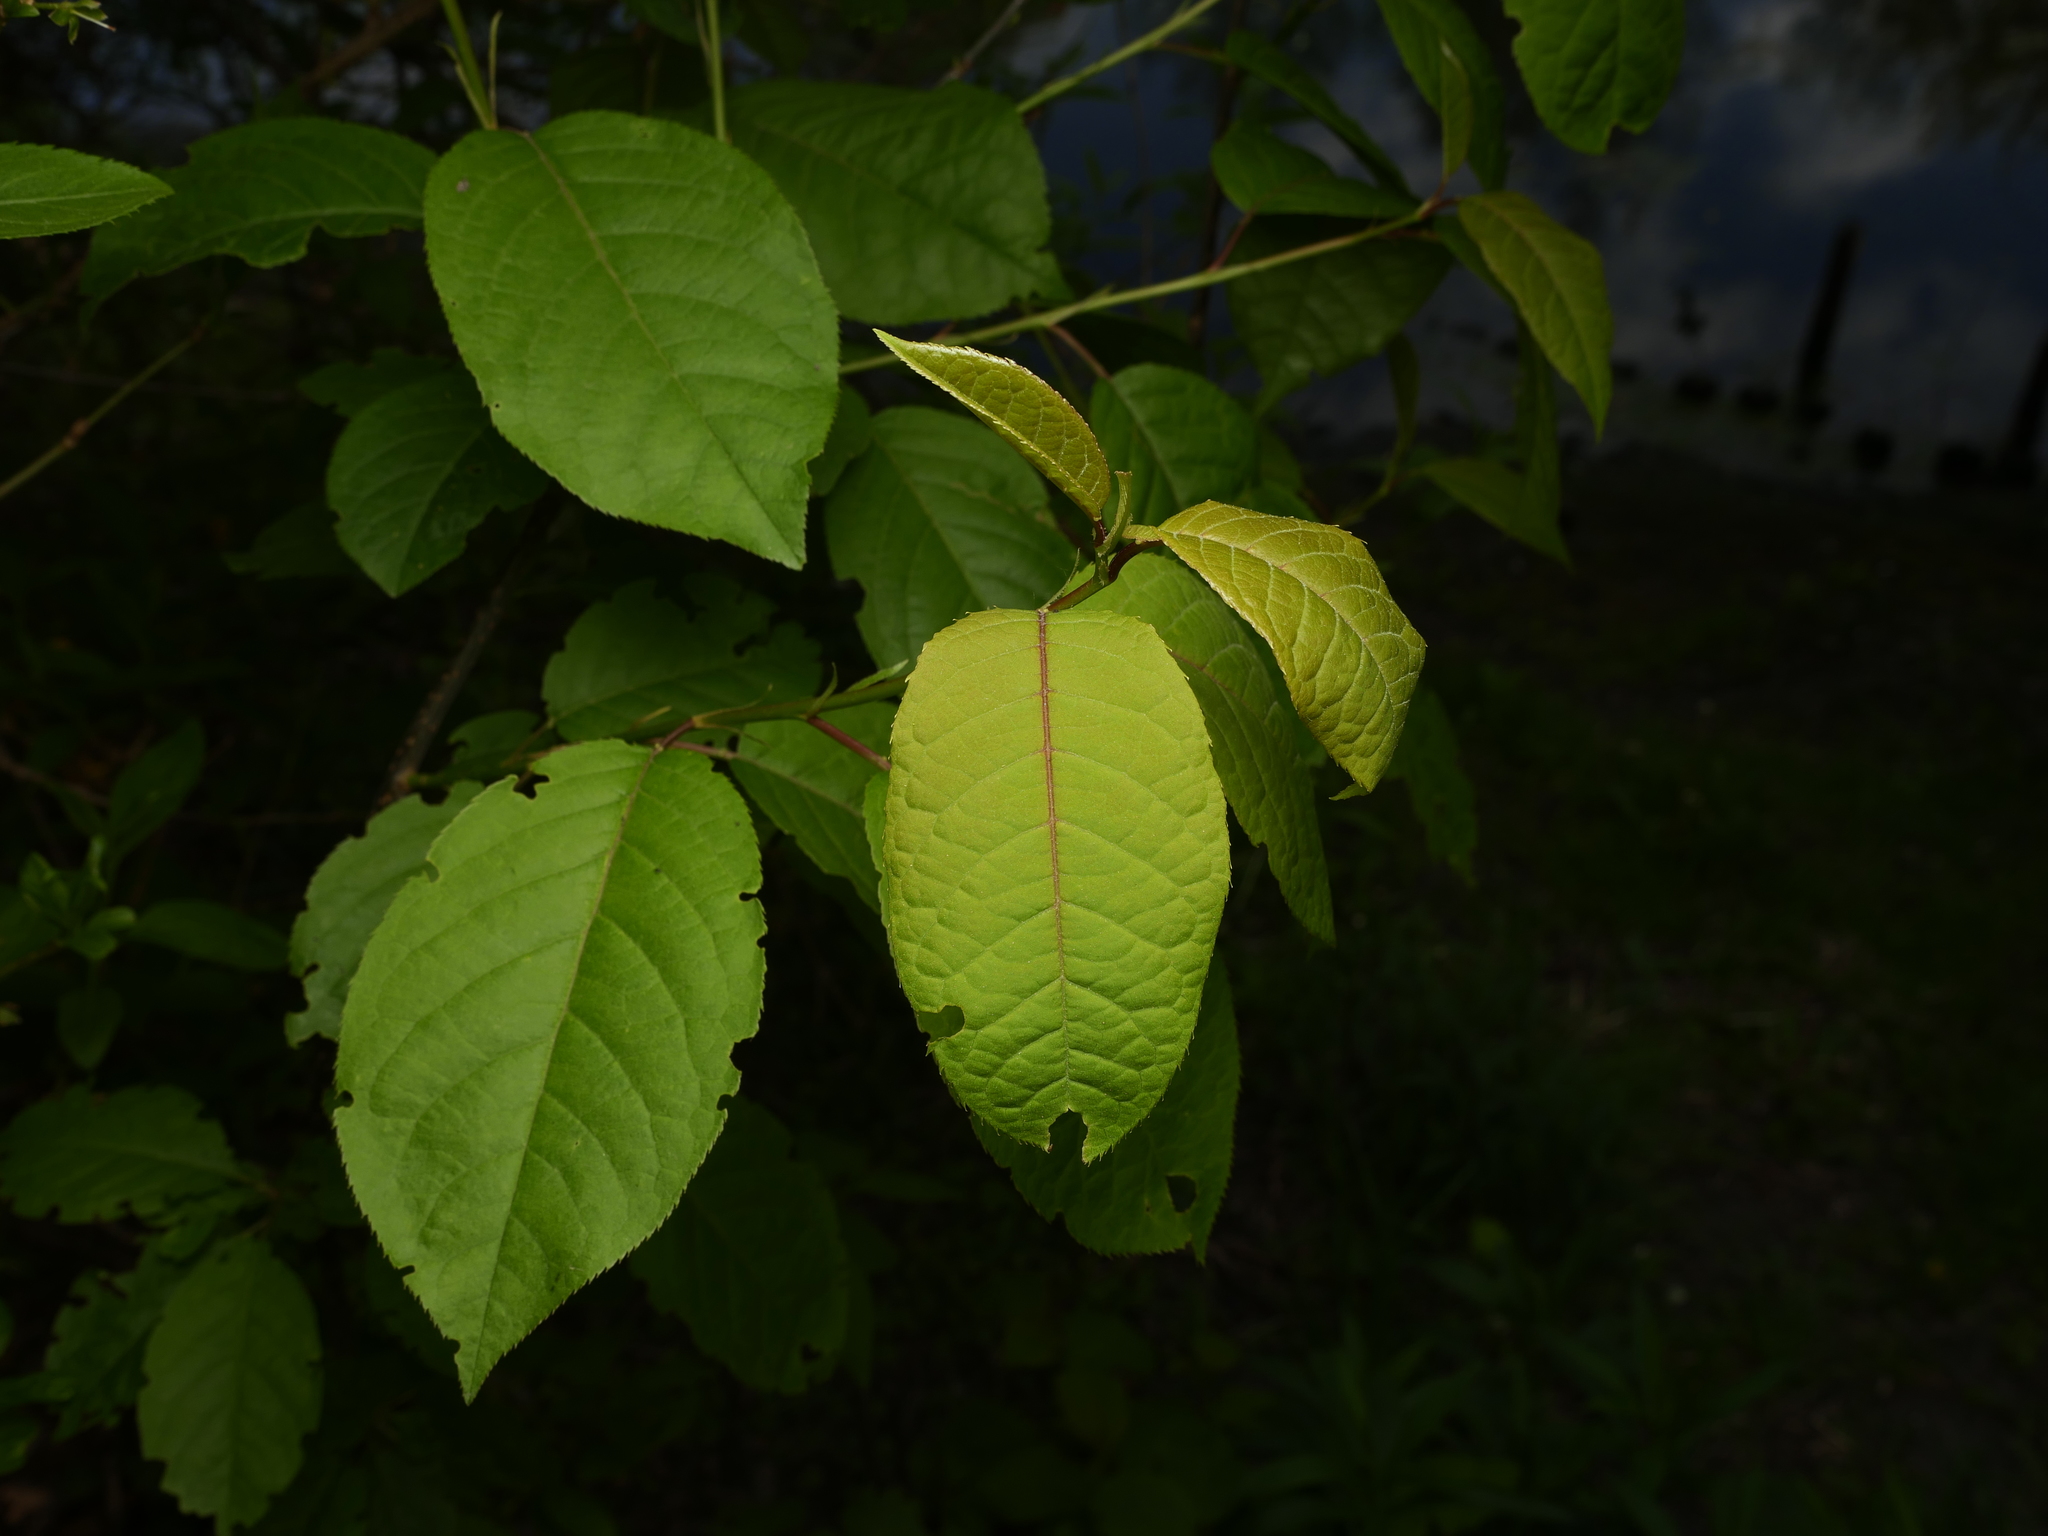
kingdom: Plantae
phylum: Tracheophyta
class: Magnoliopsida
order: Rosales
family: Rosaceae
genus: Prunus
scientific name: Prunus padus
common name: Bird cherry
